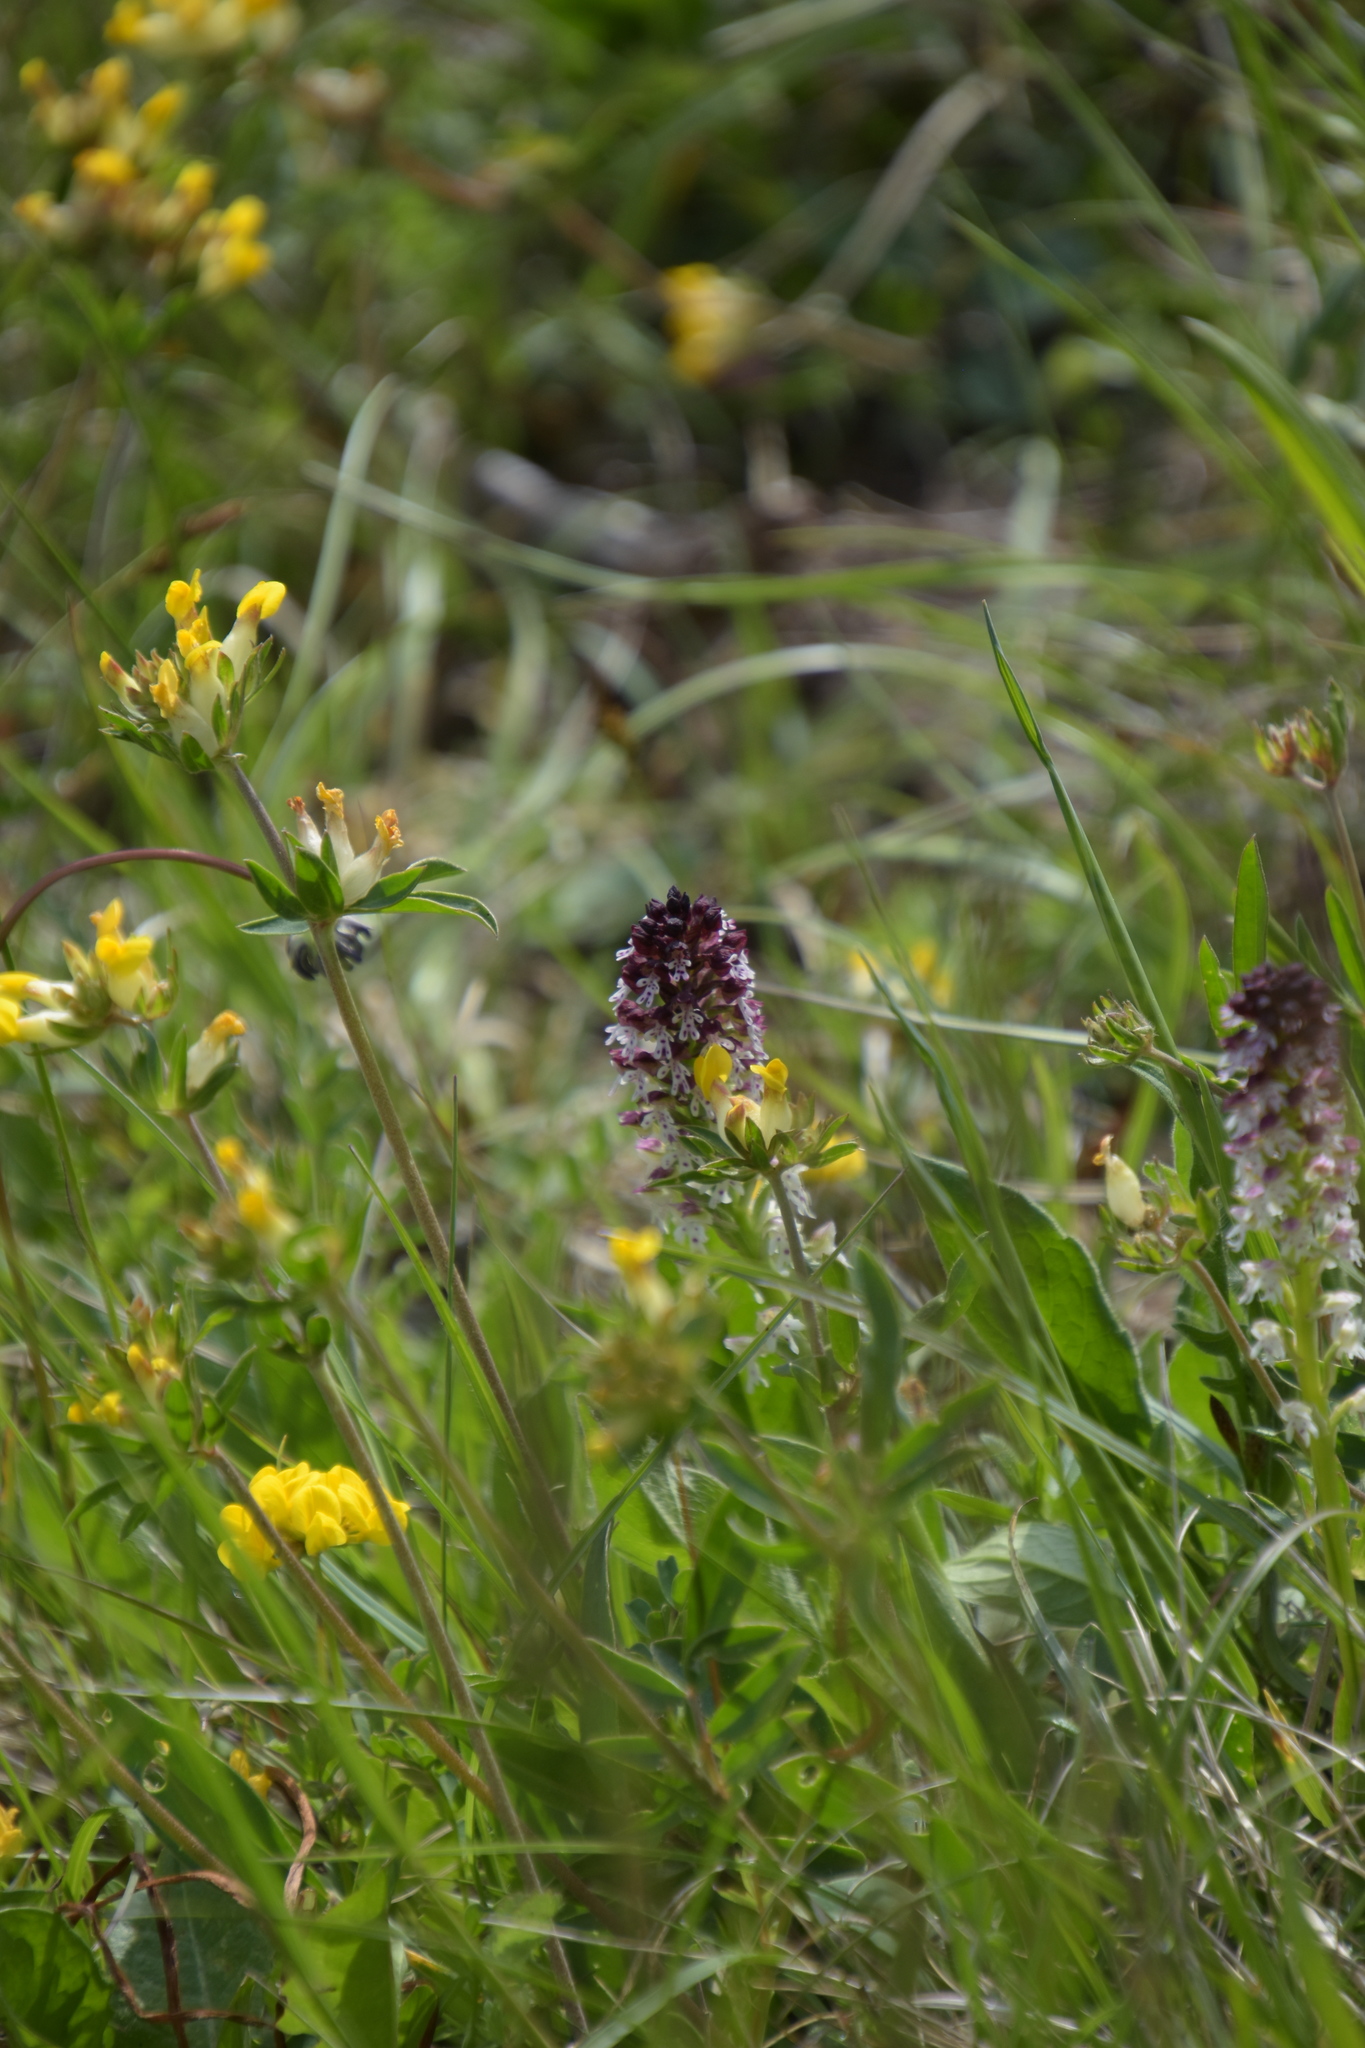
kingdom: Plantae
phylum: Tracheophyta
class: Liliopsida
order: Asparagales
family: Orchidaceae
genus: Neotinea
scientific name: Neotinea ustulata
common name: Burnt orchid
